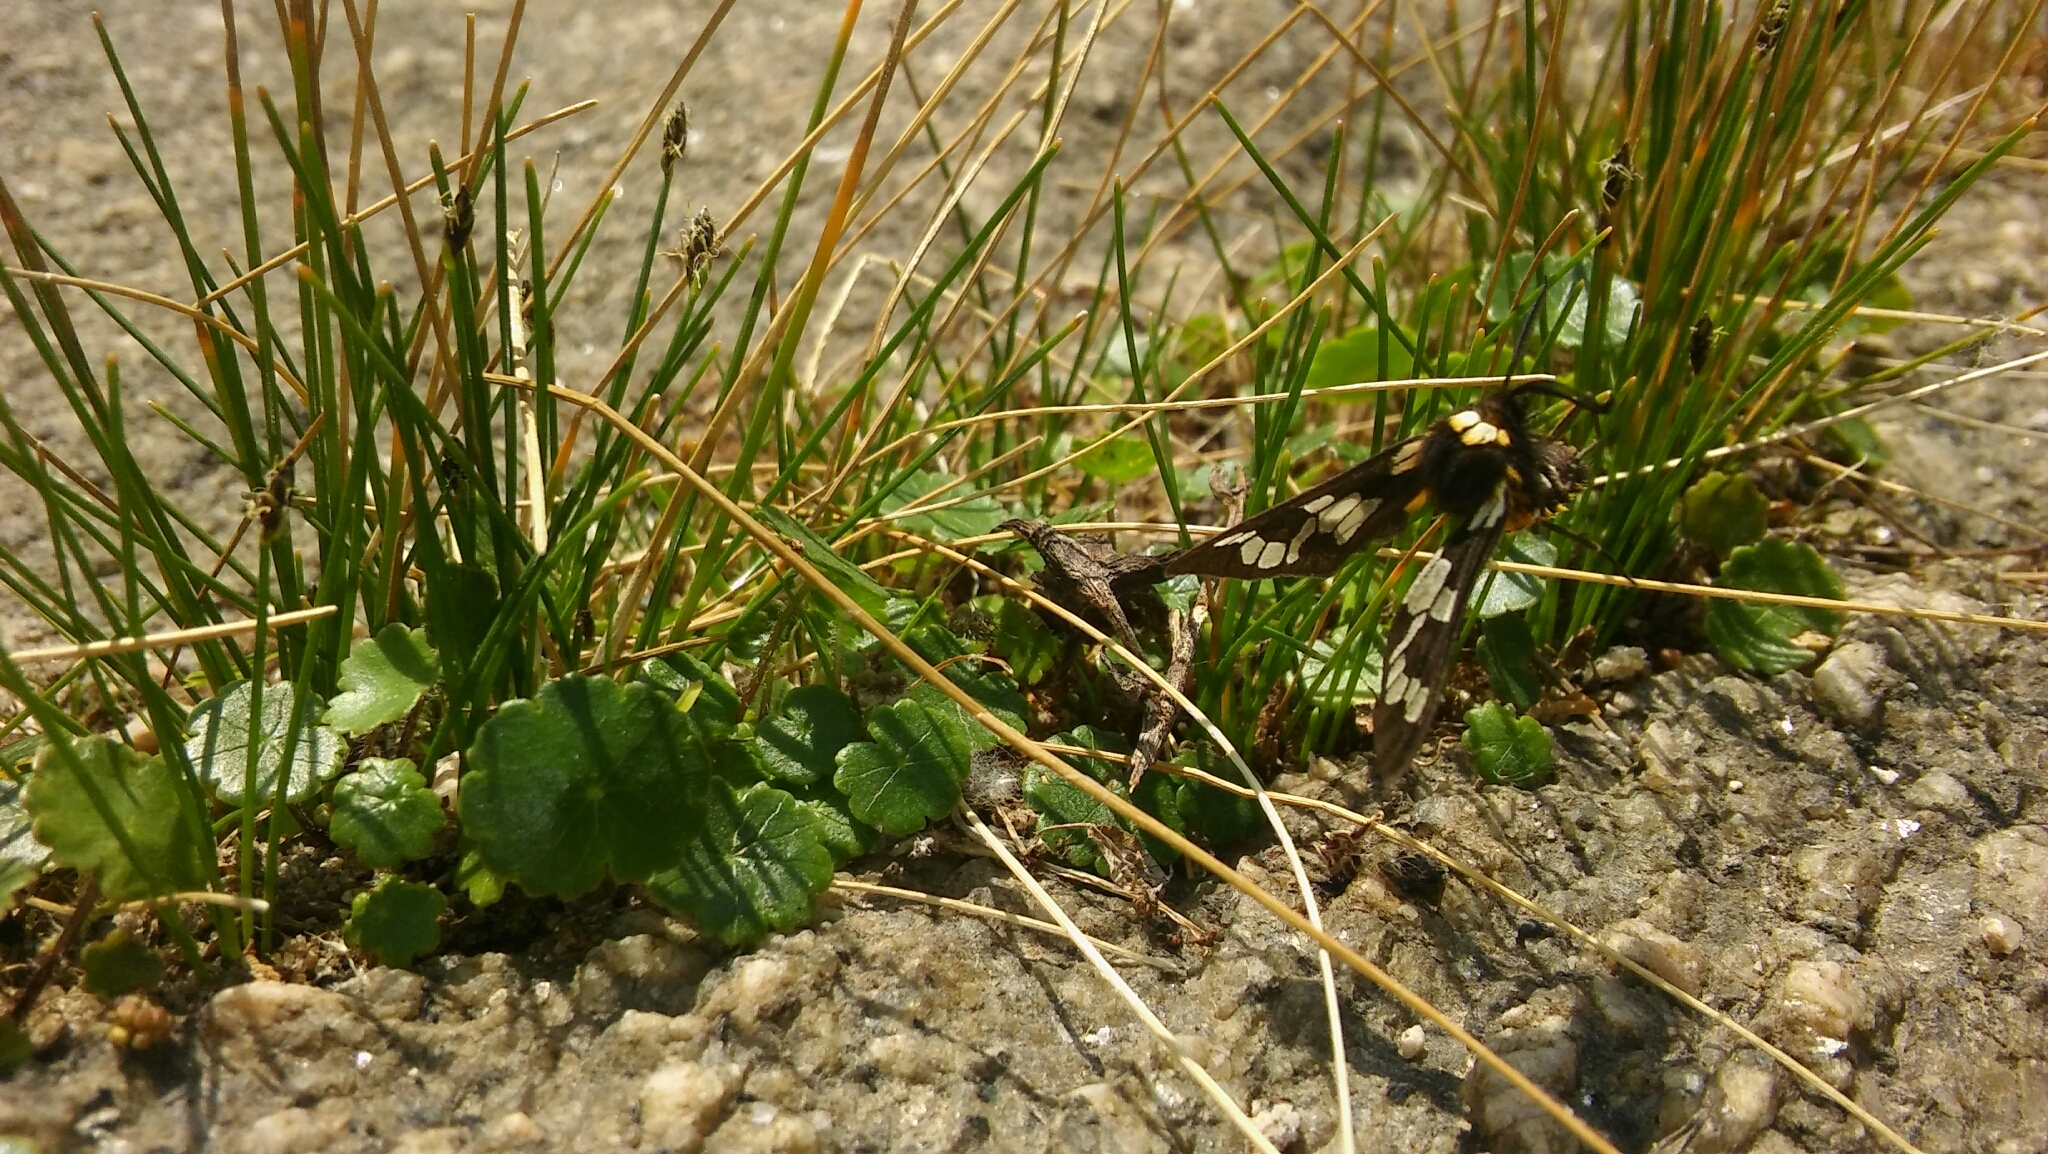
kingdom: Animalia
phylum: Arthropoda
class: Insecta
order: Lepidoptera
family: Erebidae
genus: Eurata
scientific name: Eurata
